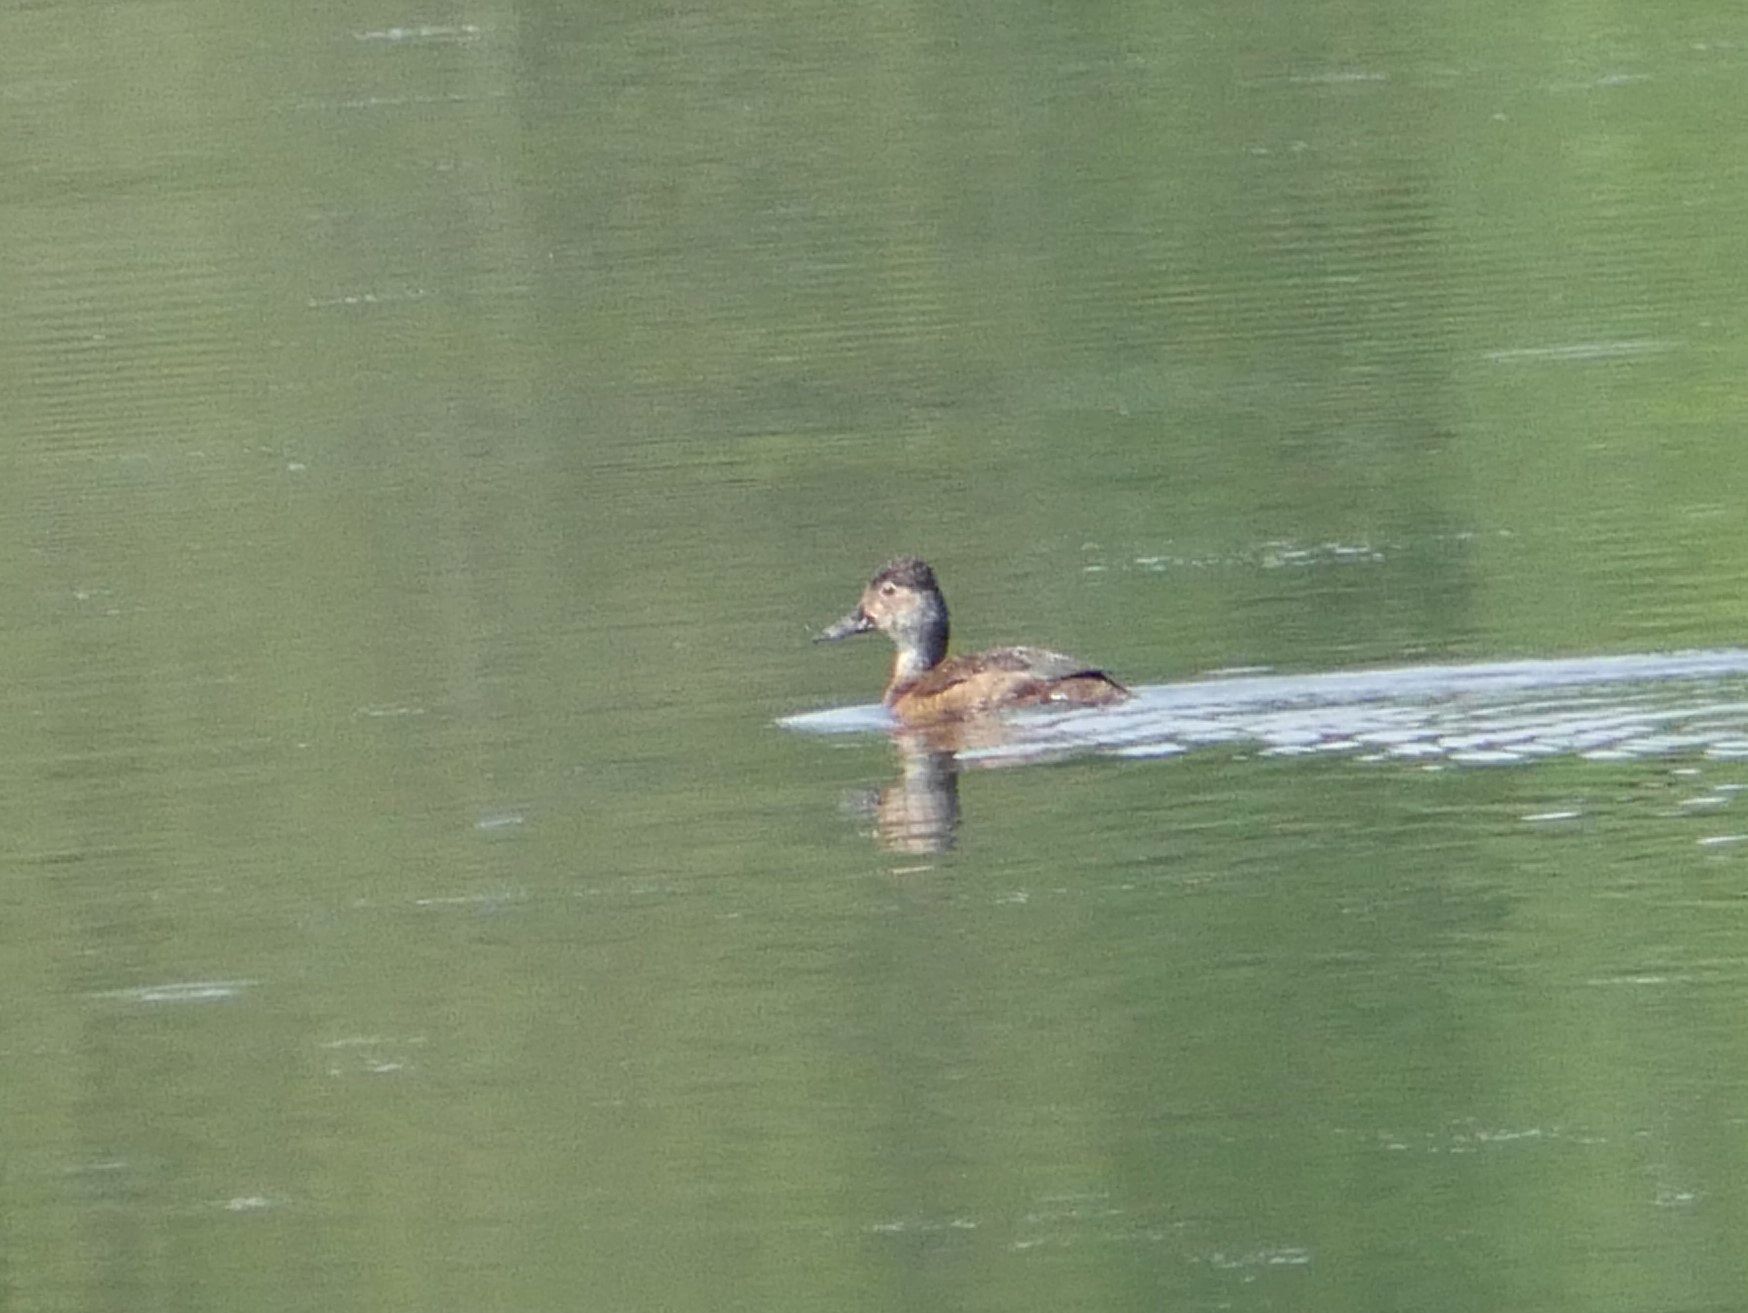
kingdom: Animalia
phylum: Chordata
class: Aves
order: Anseriformes
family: Anatidae
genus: Aythya
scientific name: Aythya collaris
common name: Ring-necked duck
